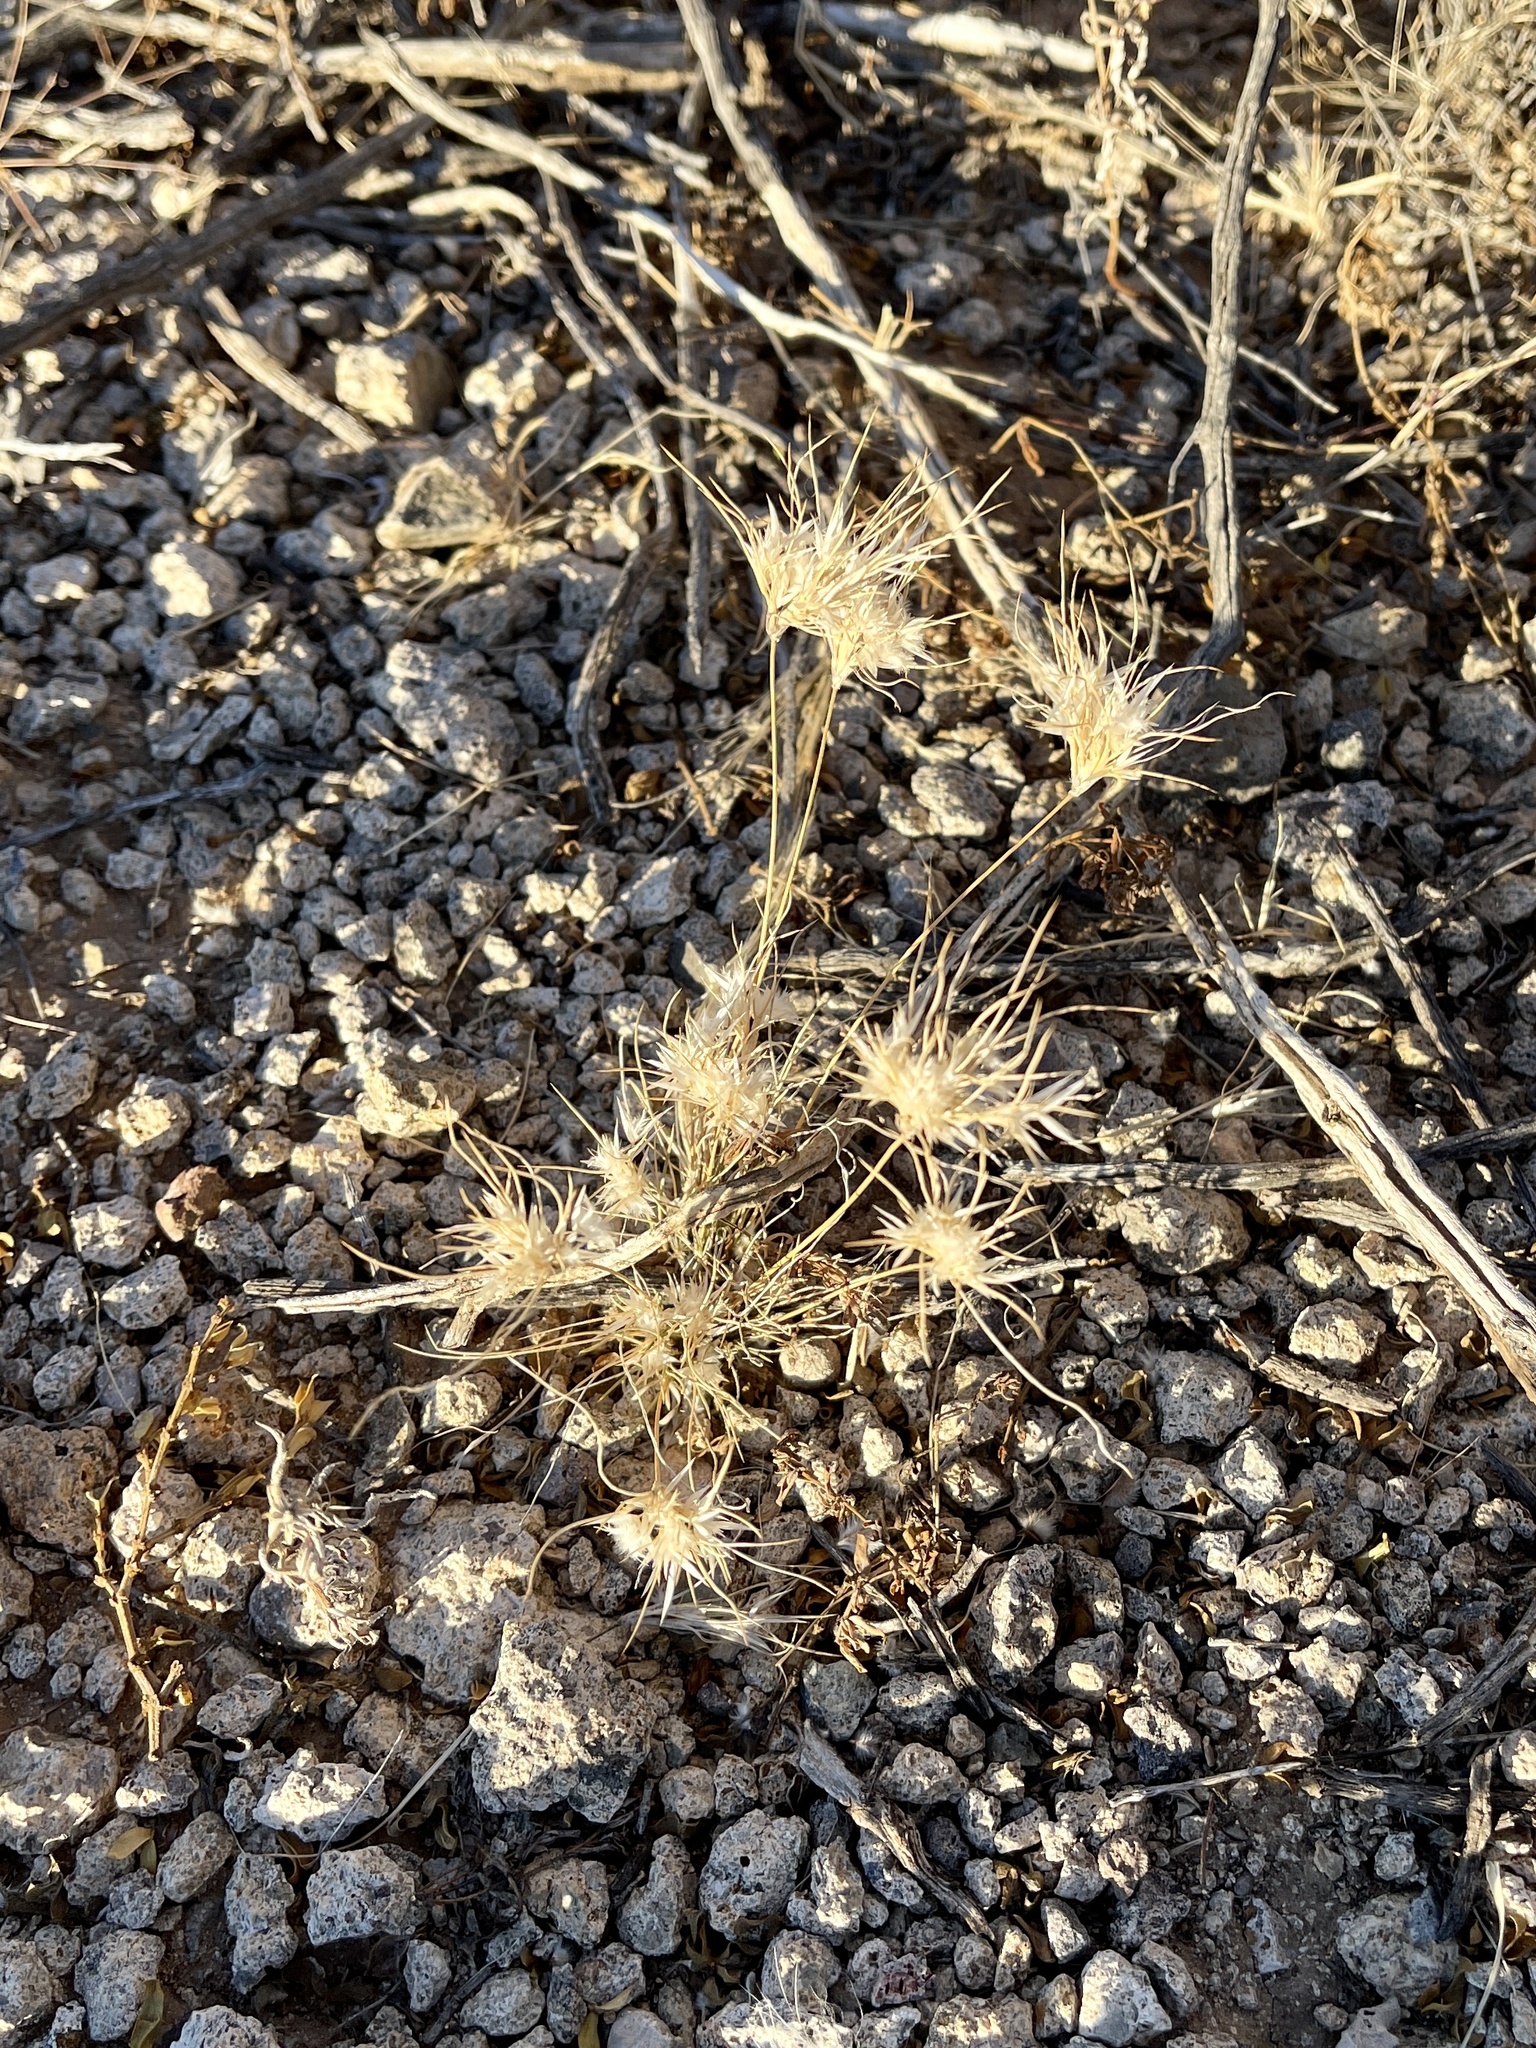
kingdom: Plantae
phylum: Tracheophyta
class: Liliopsida
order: Poales
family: Poaceae
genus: Dasyochloa
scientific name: Dasyochloa pulchella
